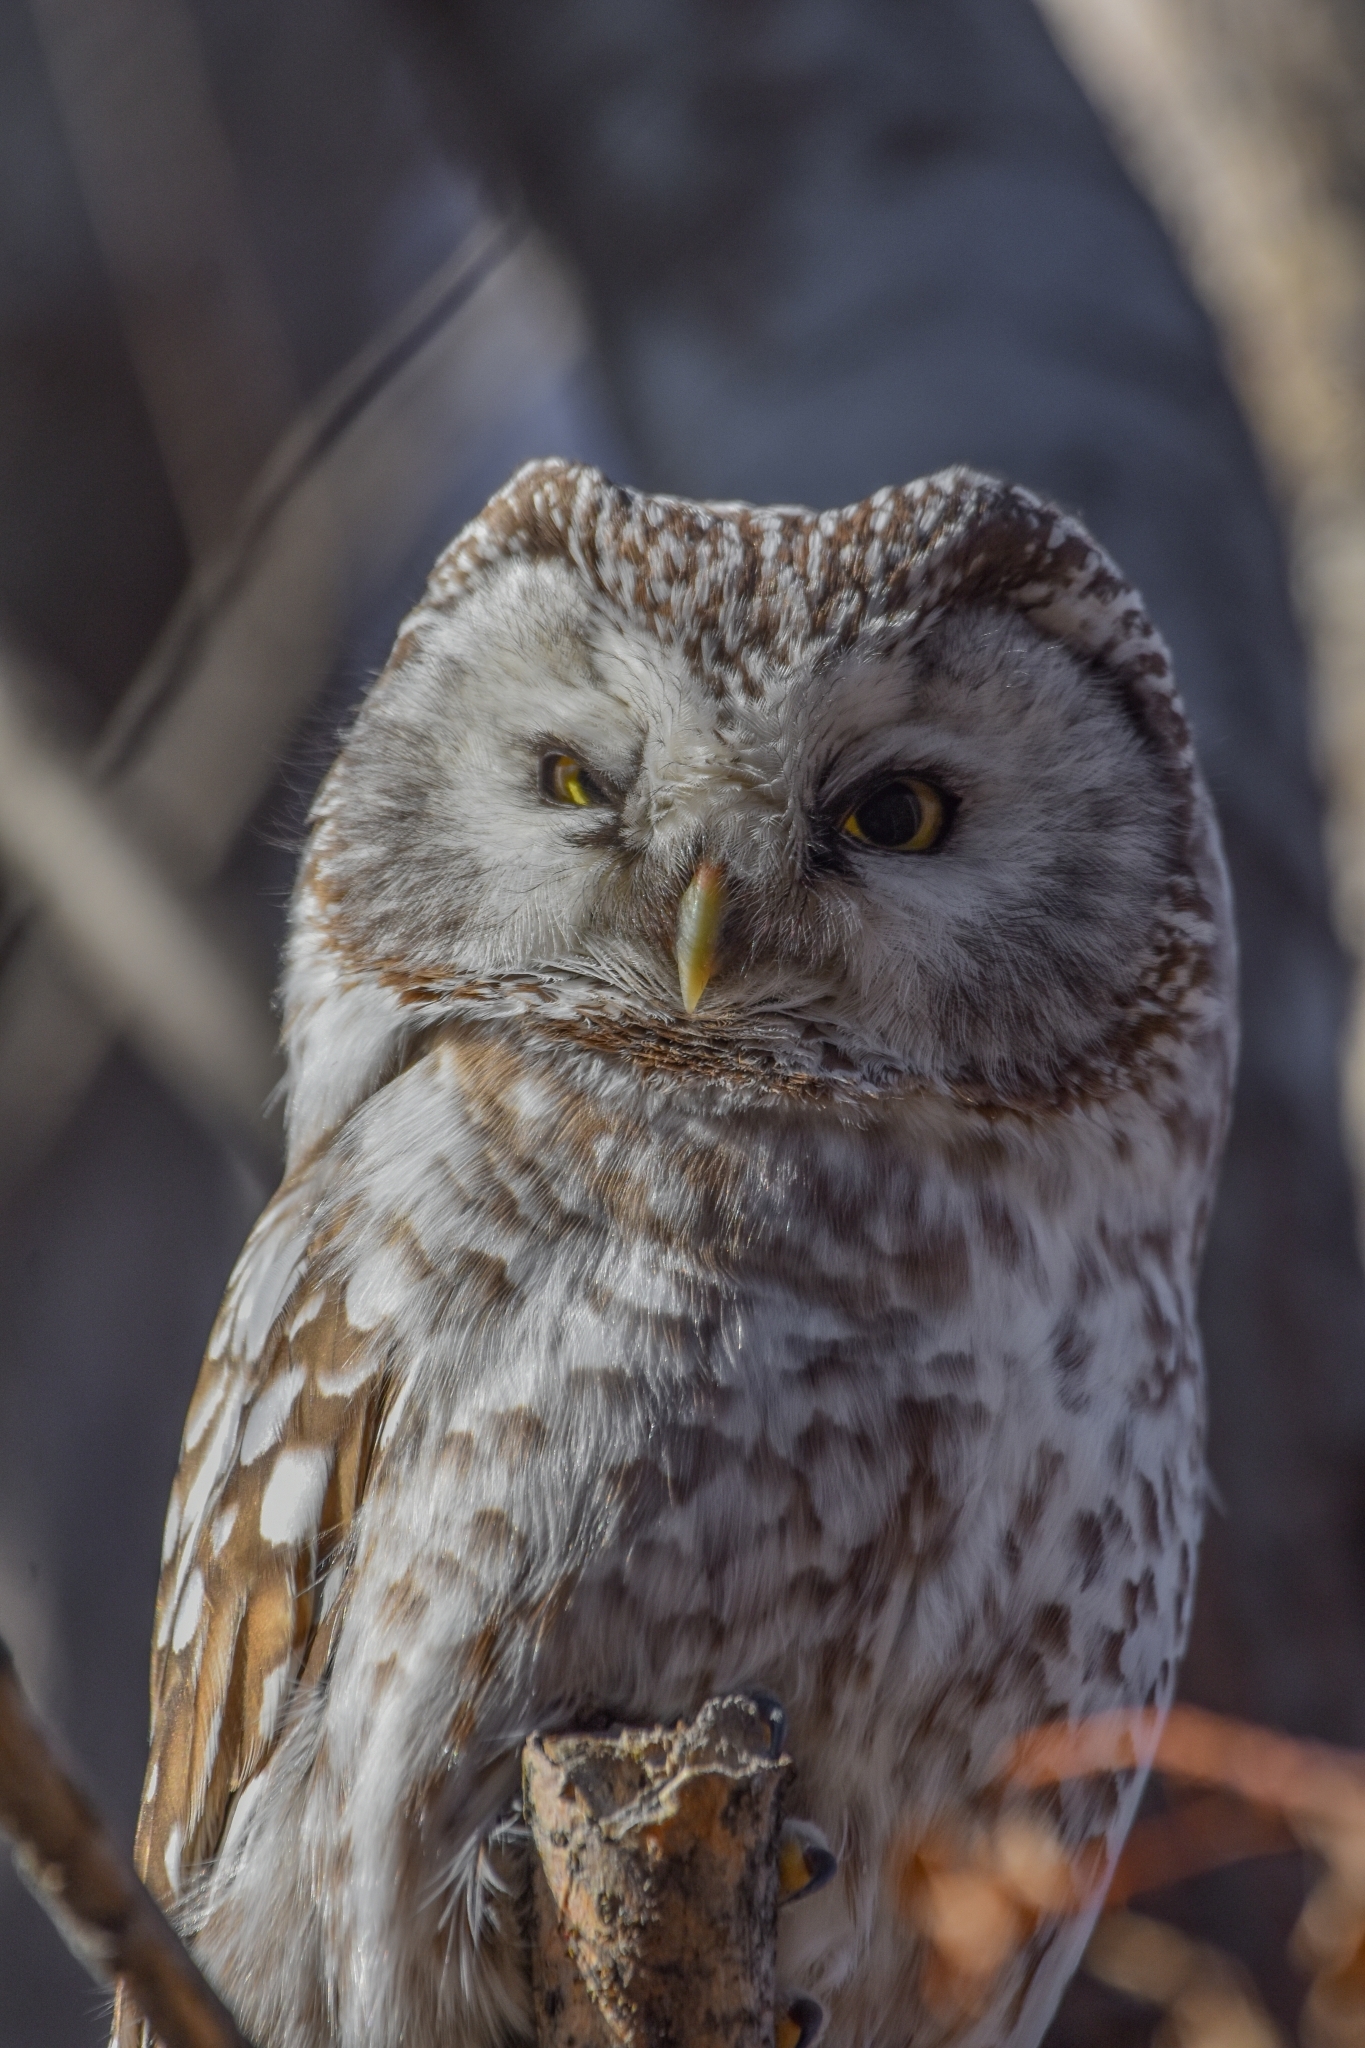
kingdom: Animalia
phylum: Chordata
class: Aves
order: Strigiformes
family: Strigidae
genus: Aegolius
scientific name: Aegolius funereus
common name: Boreal owl
